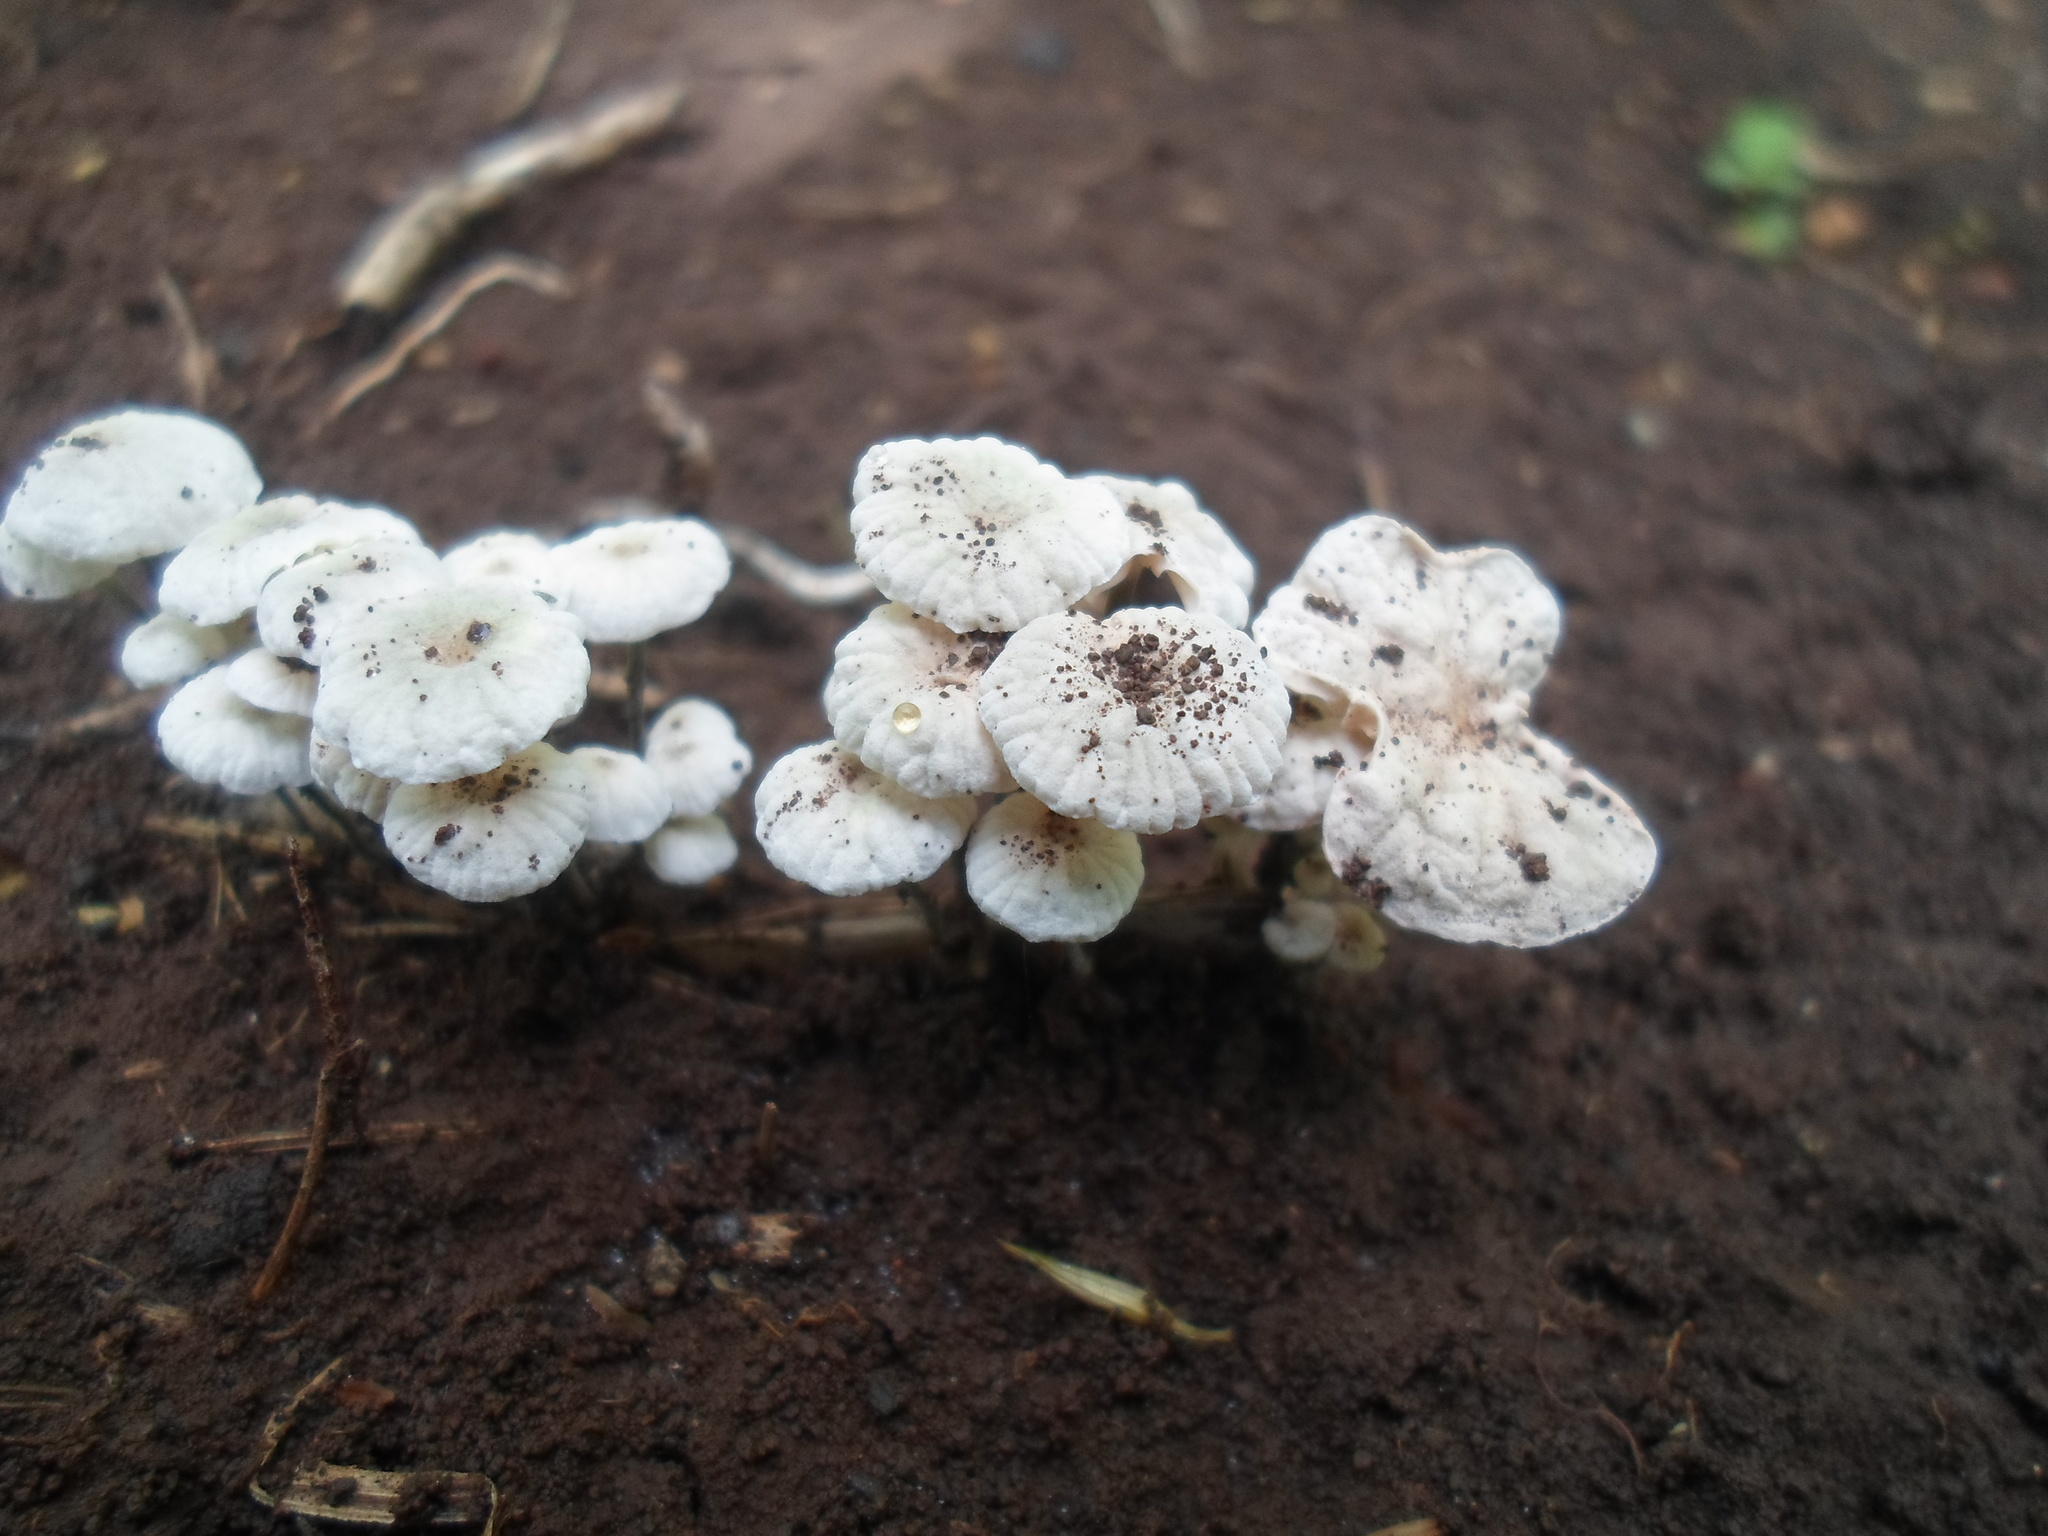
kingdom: Fungi
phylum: Basidiomycota
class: Agaricomycetes
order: Agaricales
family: Marasmiaceae
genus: Tetrapyrgos
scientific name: Tetrapyrgos nigripes
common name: Black-stalked marasmius
